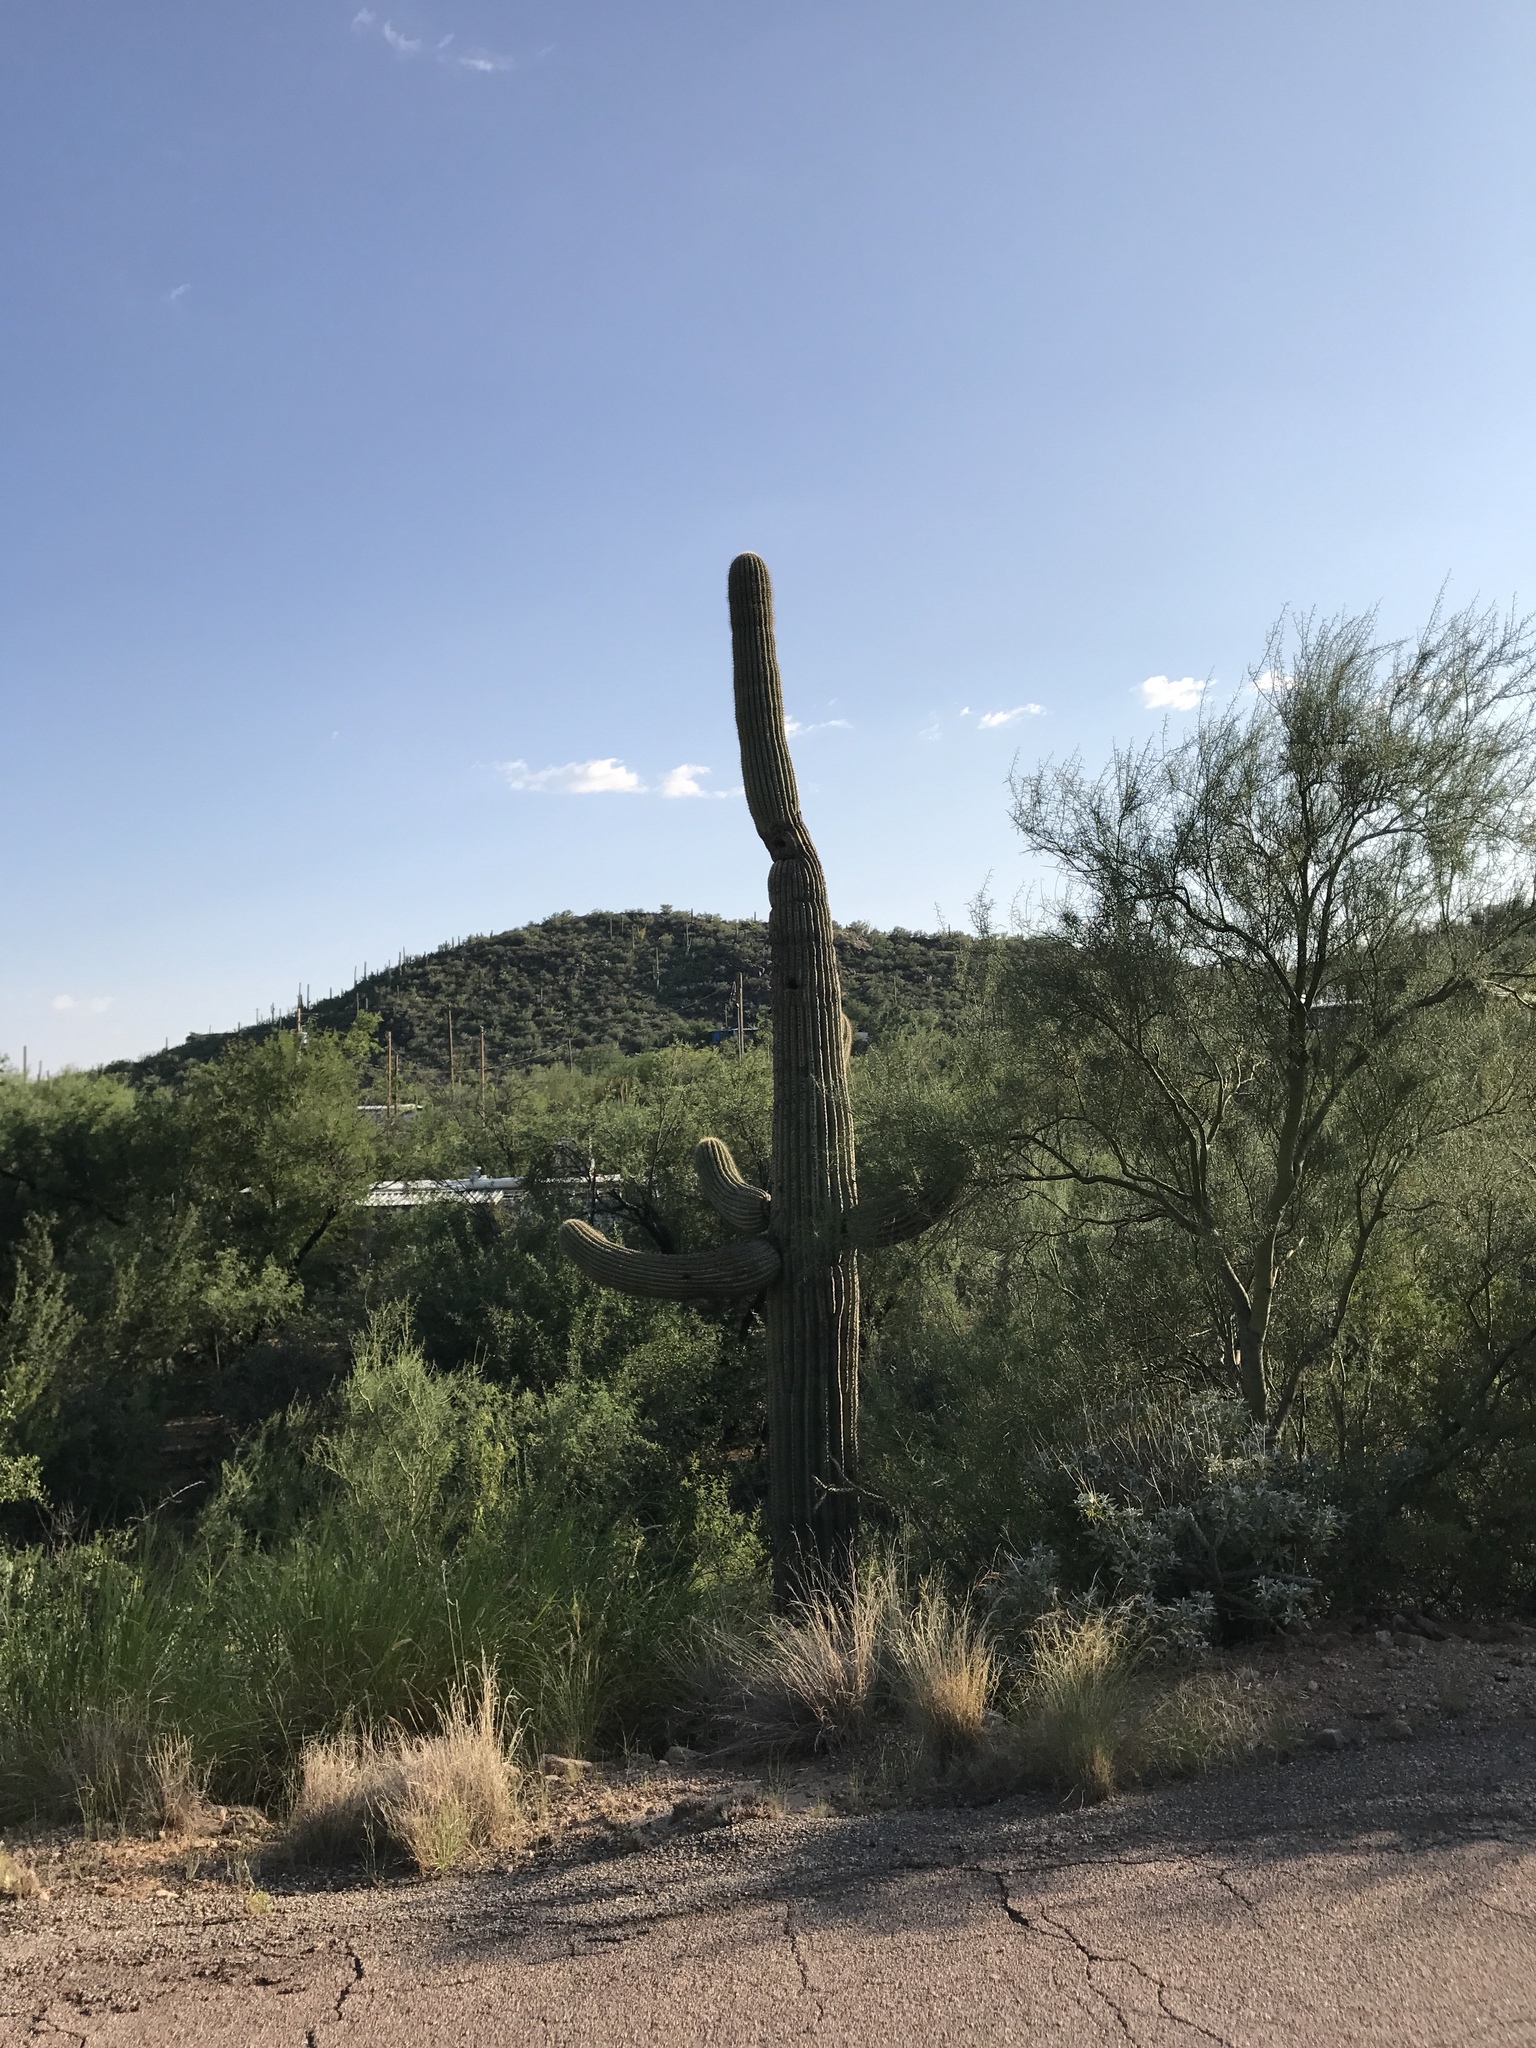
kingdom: Plantae
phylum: Tracheophyta
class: Magnoliopsida
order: Caryophyllales
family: Cactaceae
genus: Carnegiea
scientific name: Carnegiea gigantea
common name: Saguaro
